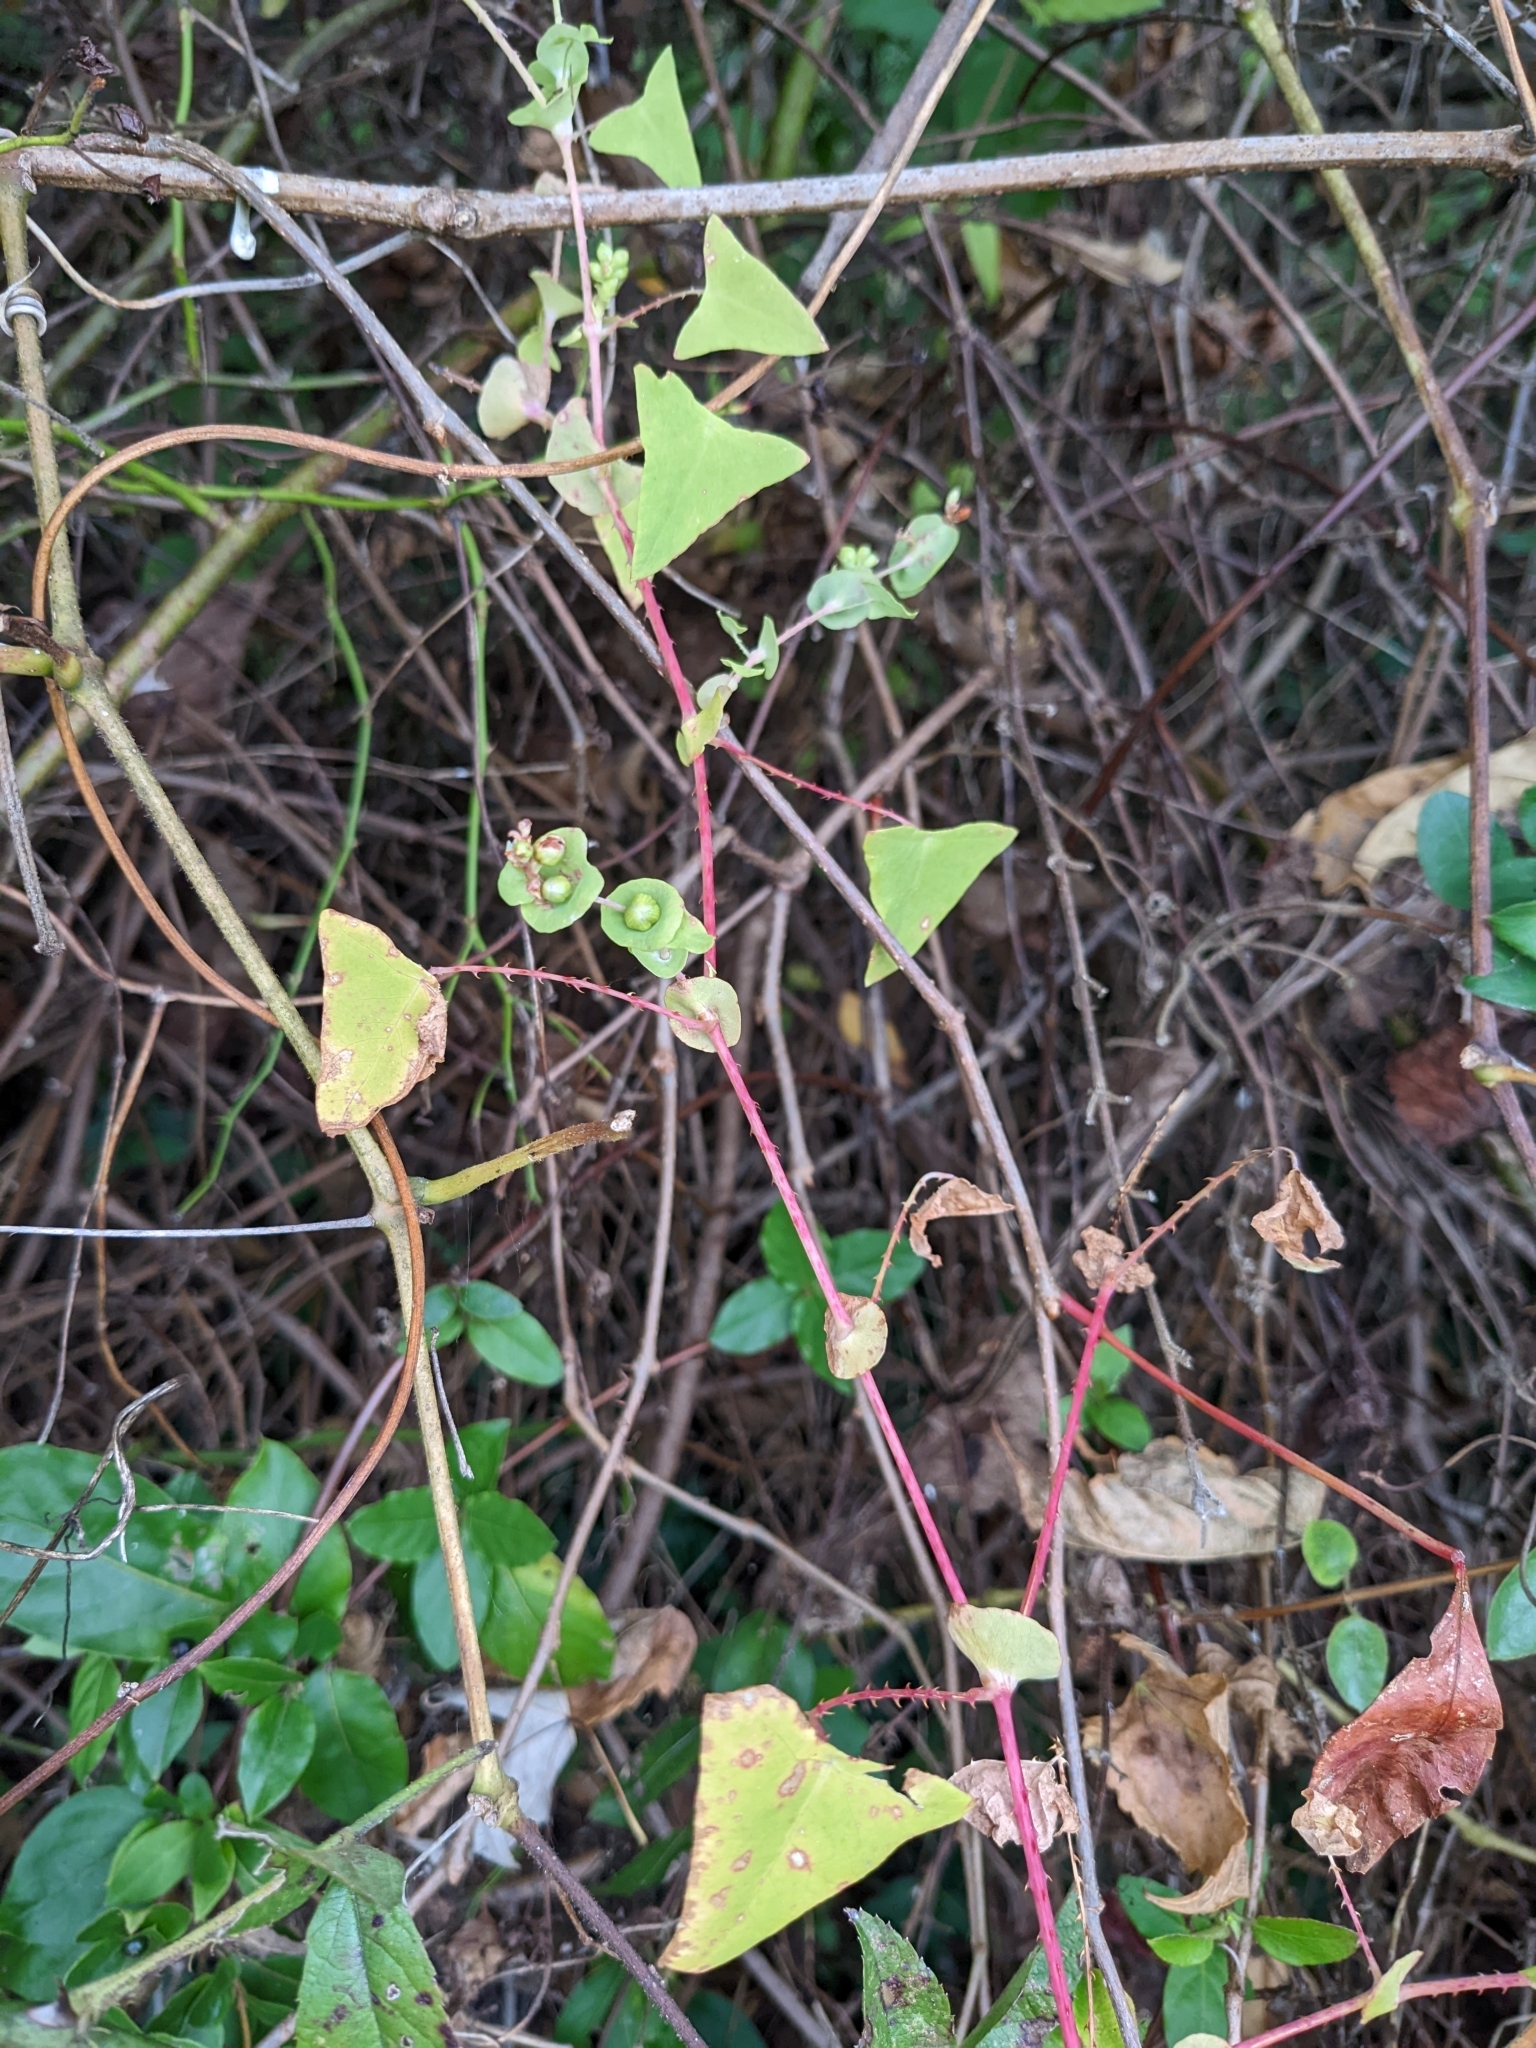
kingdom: Plantae
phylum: Tracheophyta
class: Magnoliopsida
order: Caryophyllales
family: Polygonaceae
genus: Persicaria
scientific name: Persicaria perfoliata
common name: Asiatic tearthumb
